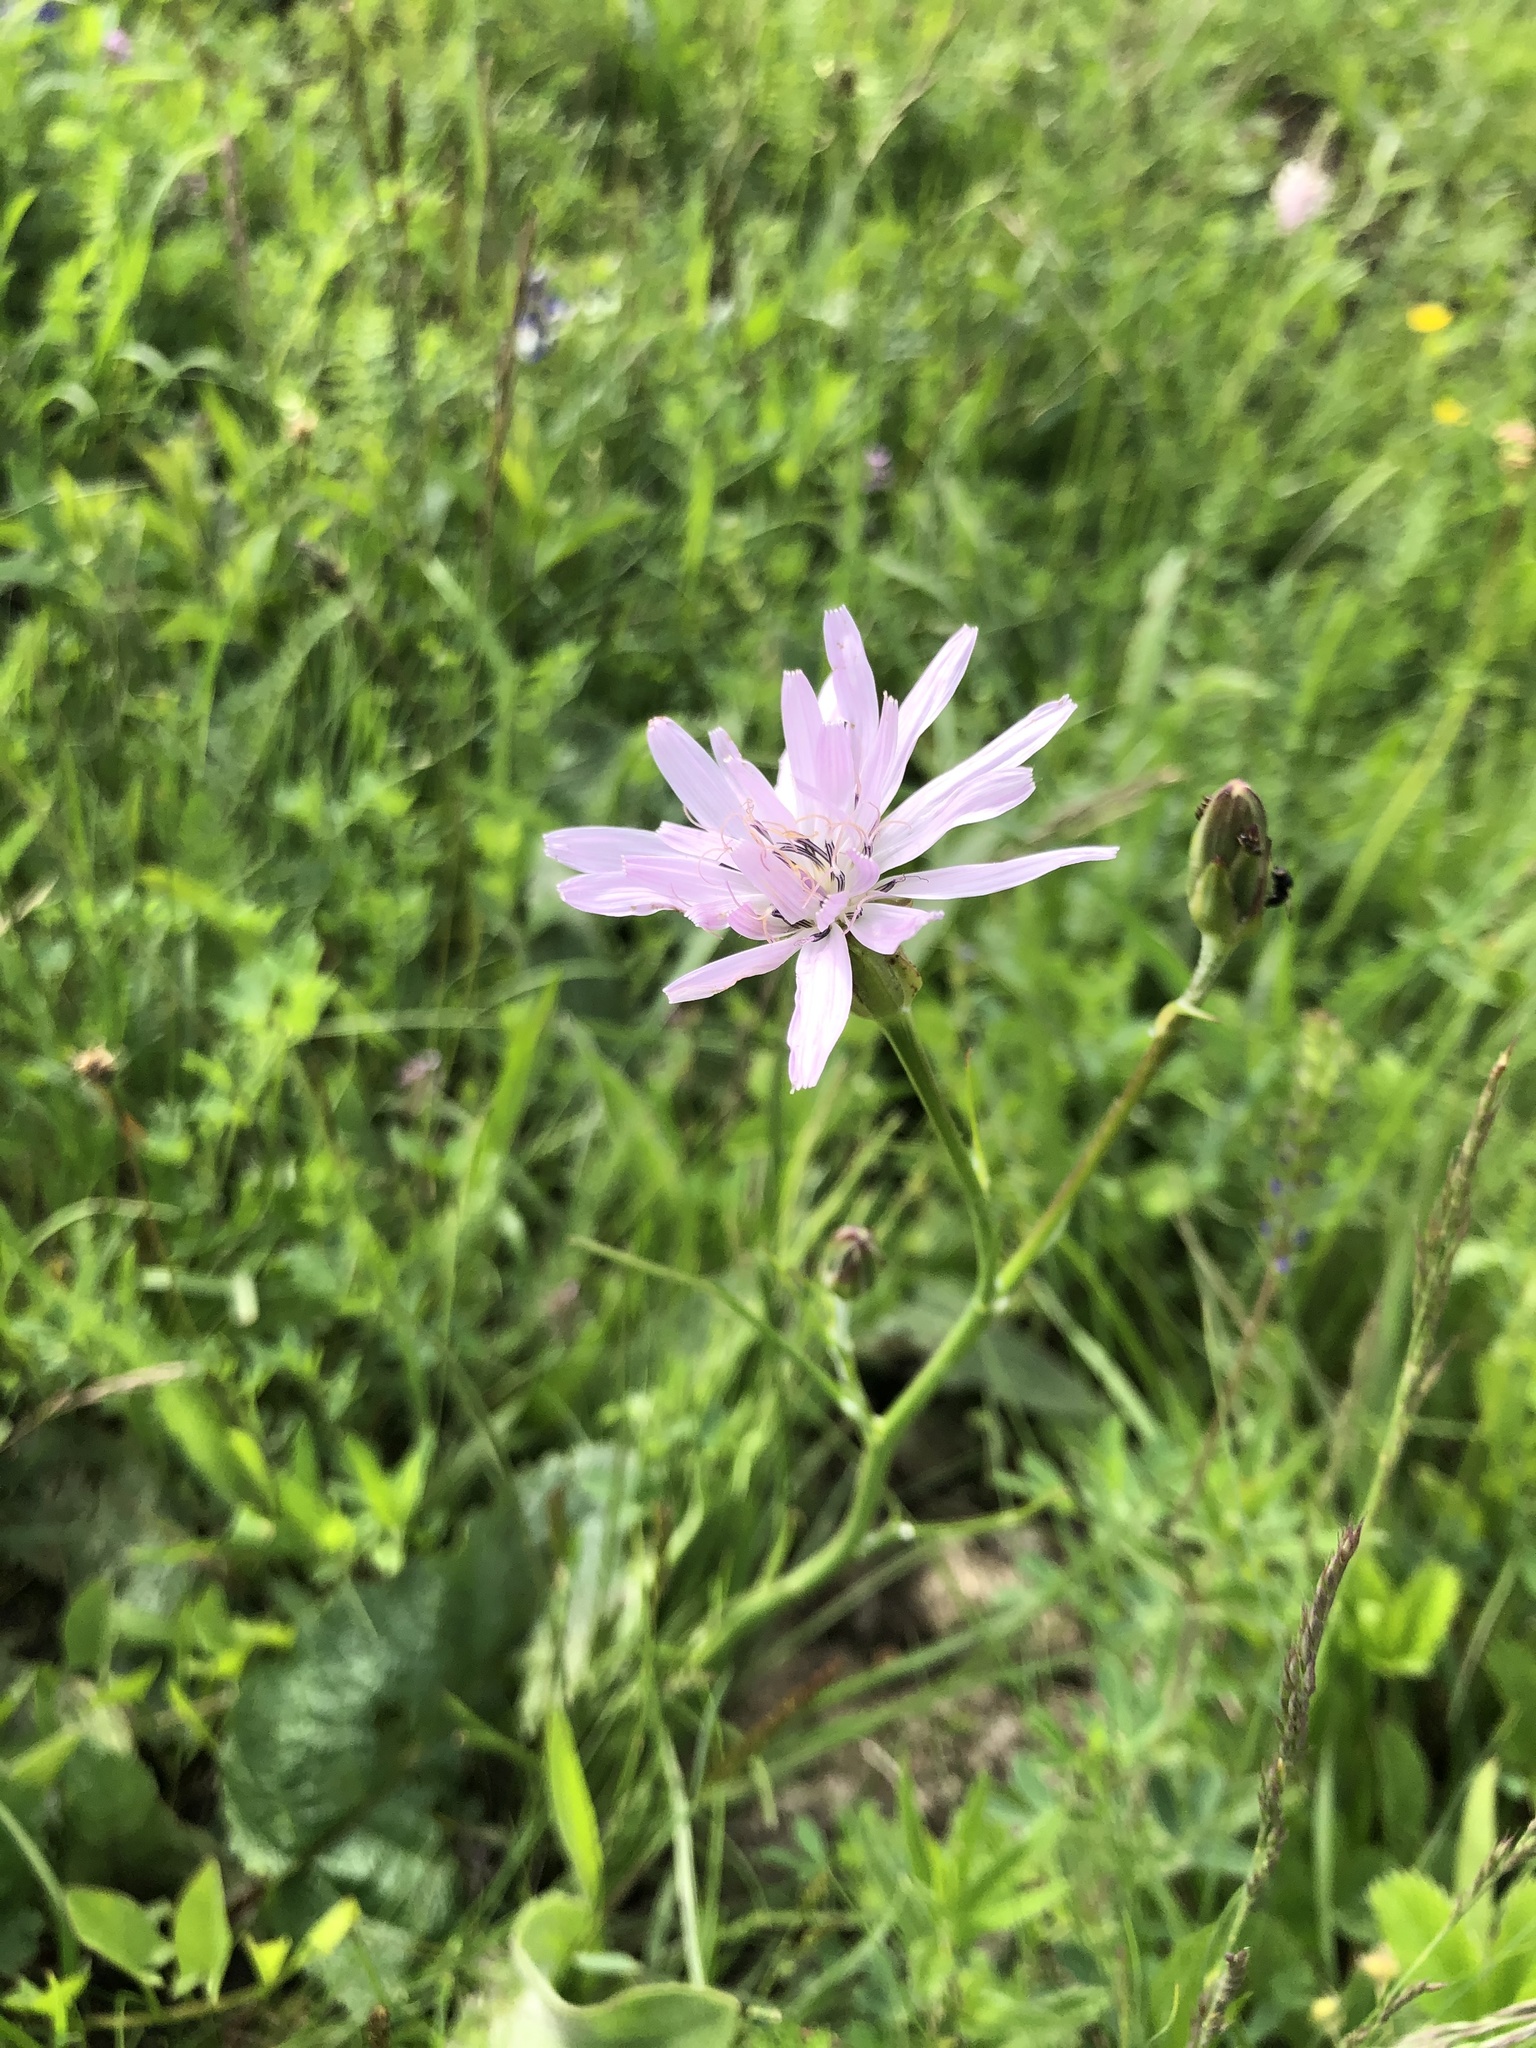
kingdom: Plantae
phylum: Tracheophyta
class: Magnoliopsida
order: Asterales
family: Asteraceae
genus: Scorzonera
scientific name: Scorzonera rosea
